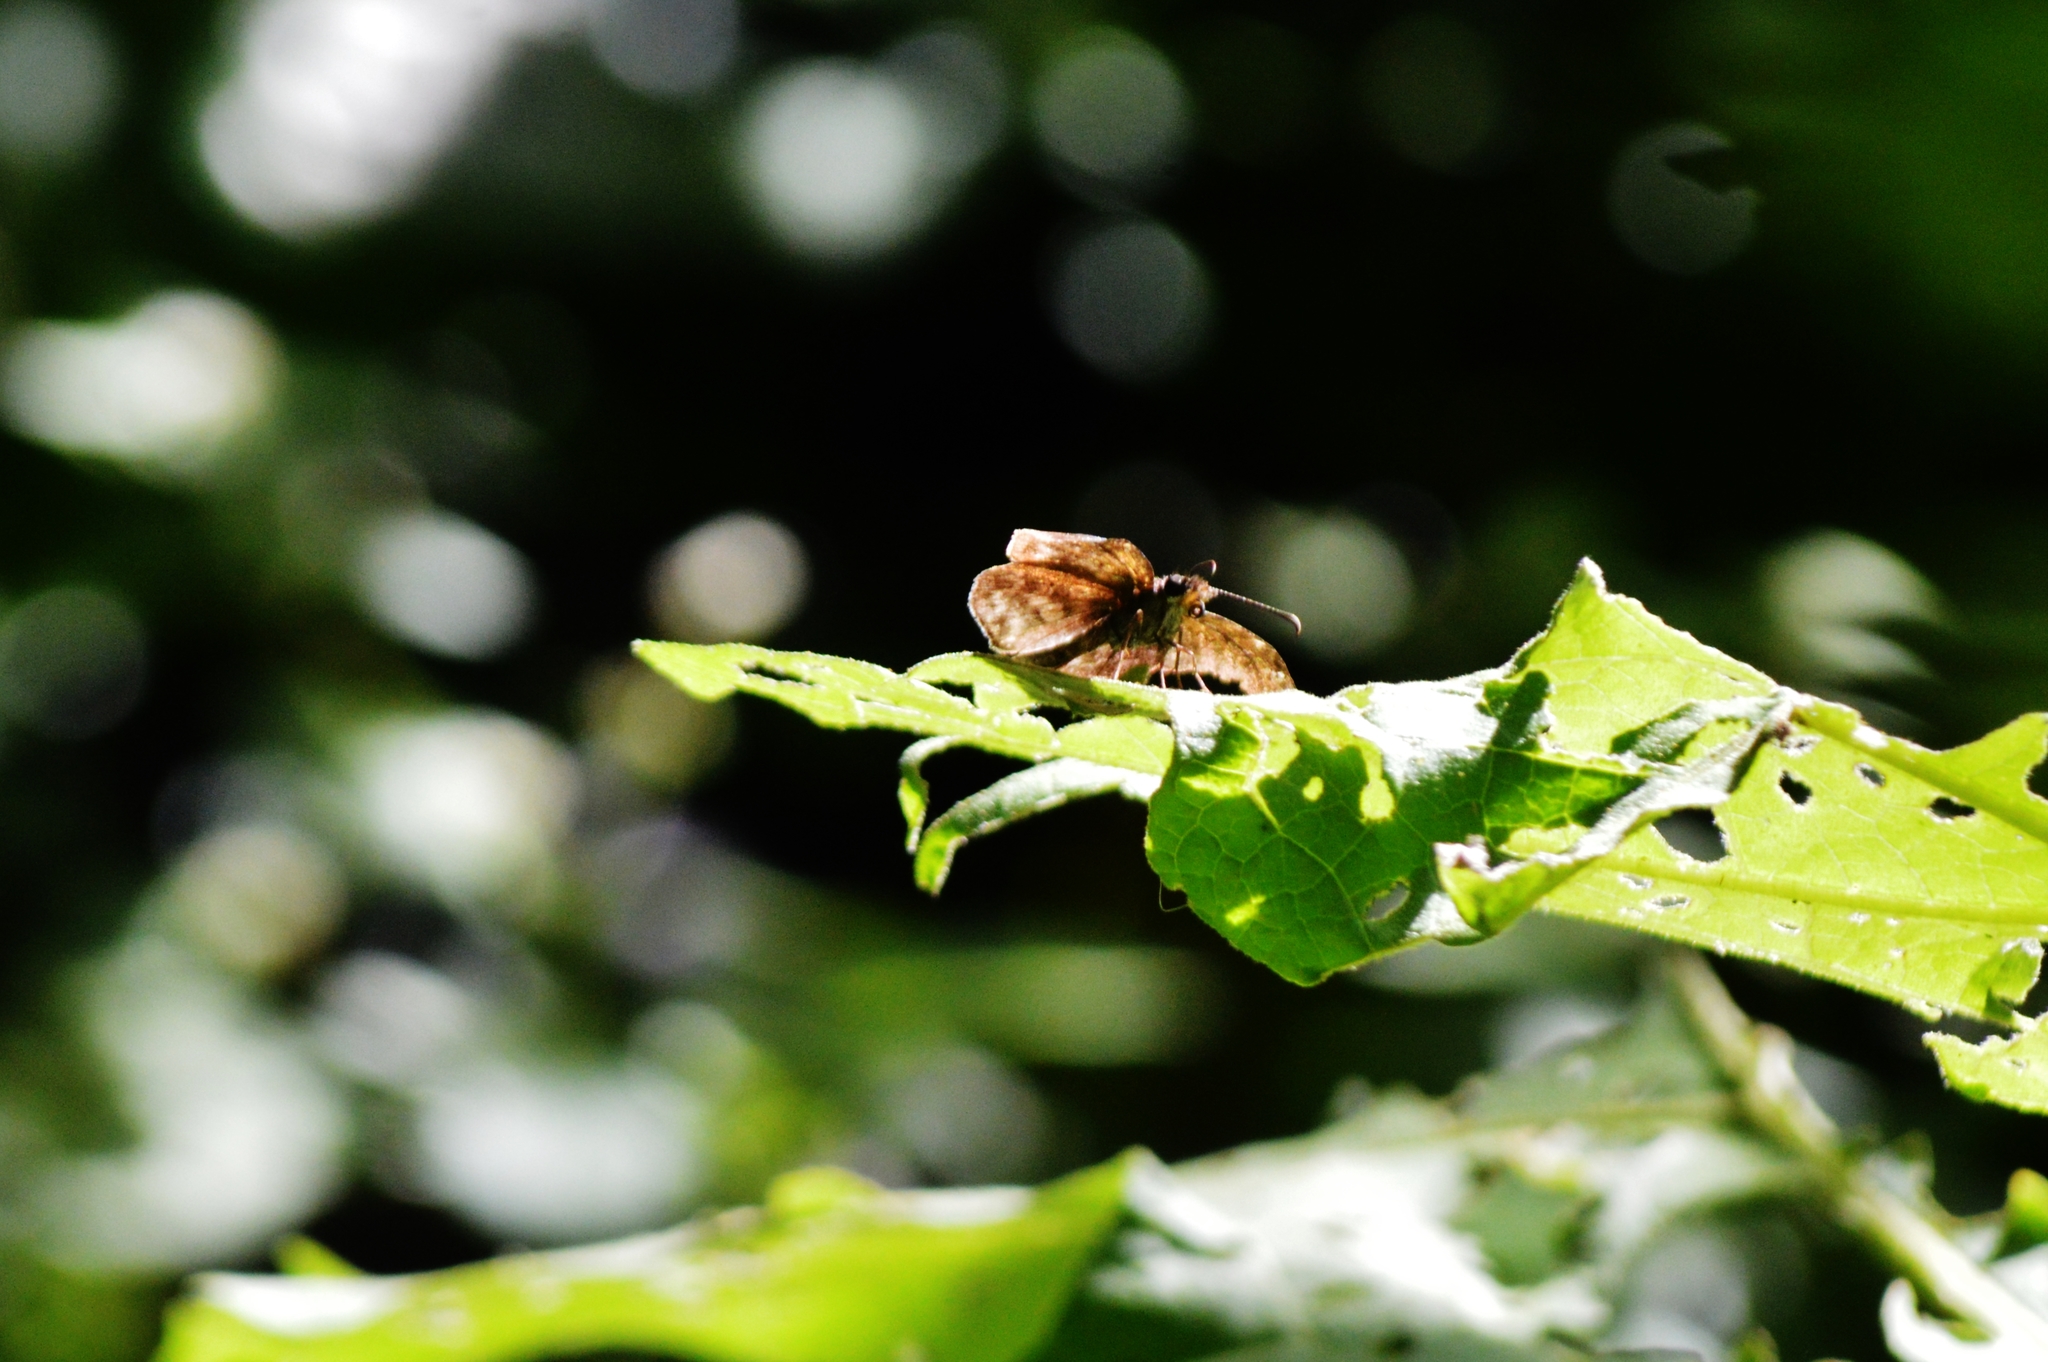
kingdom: Animalia
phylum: Arthropoda
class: Insecta
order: Lepidoptera
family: Hesperiidae
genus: Gorgythion
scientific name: Gorgythion begga
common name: Variegated skipper
